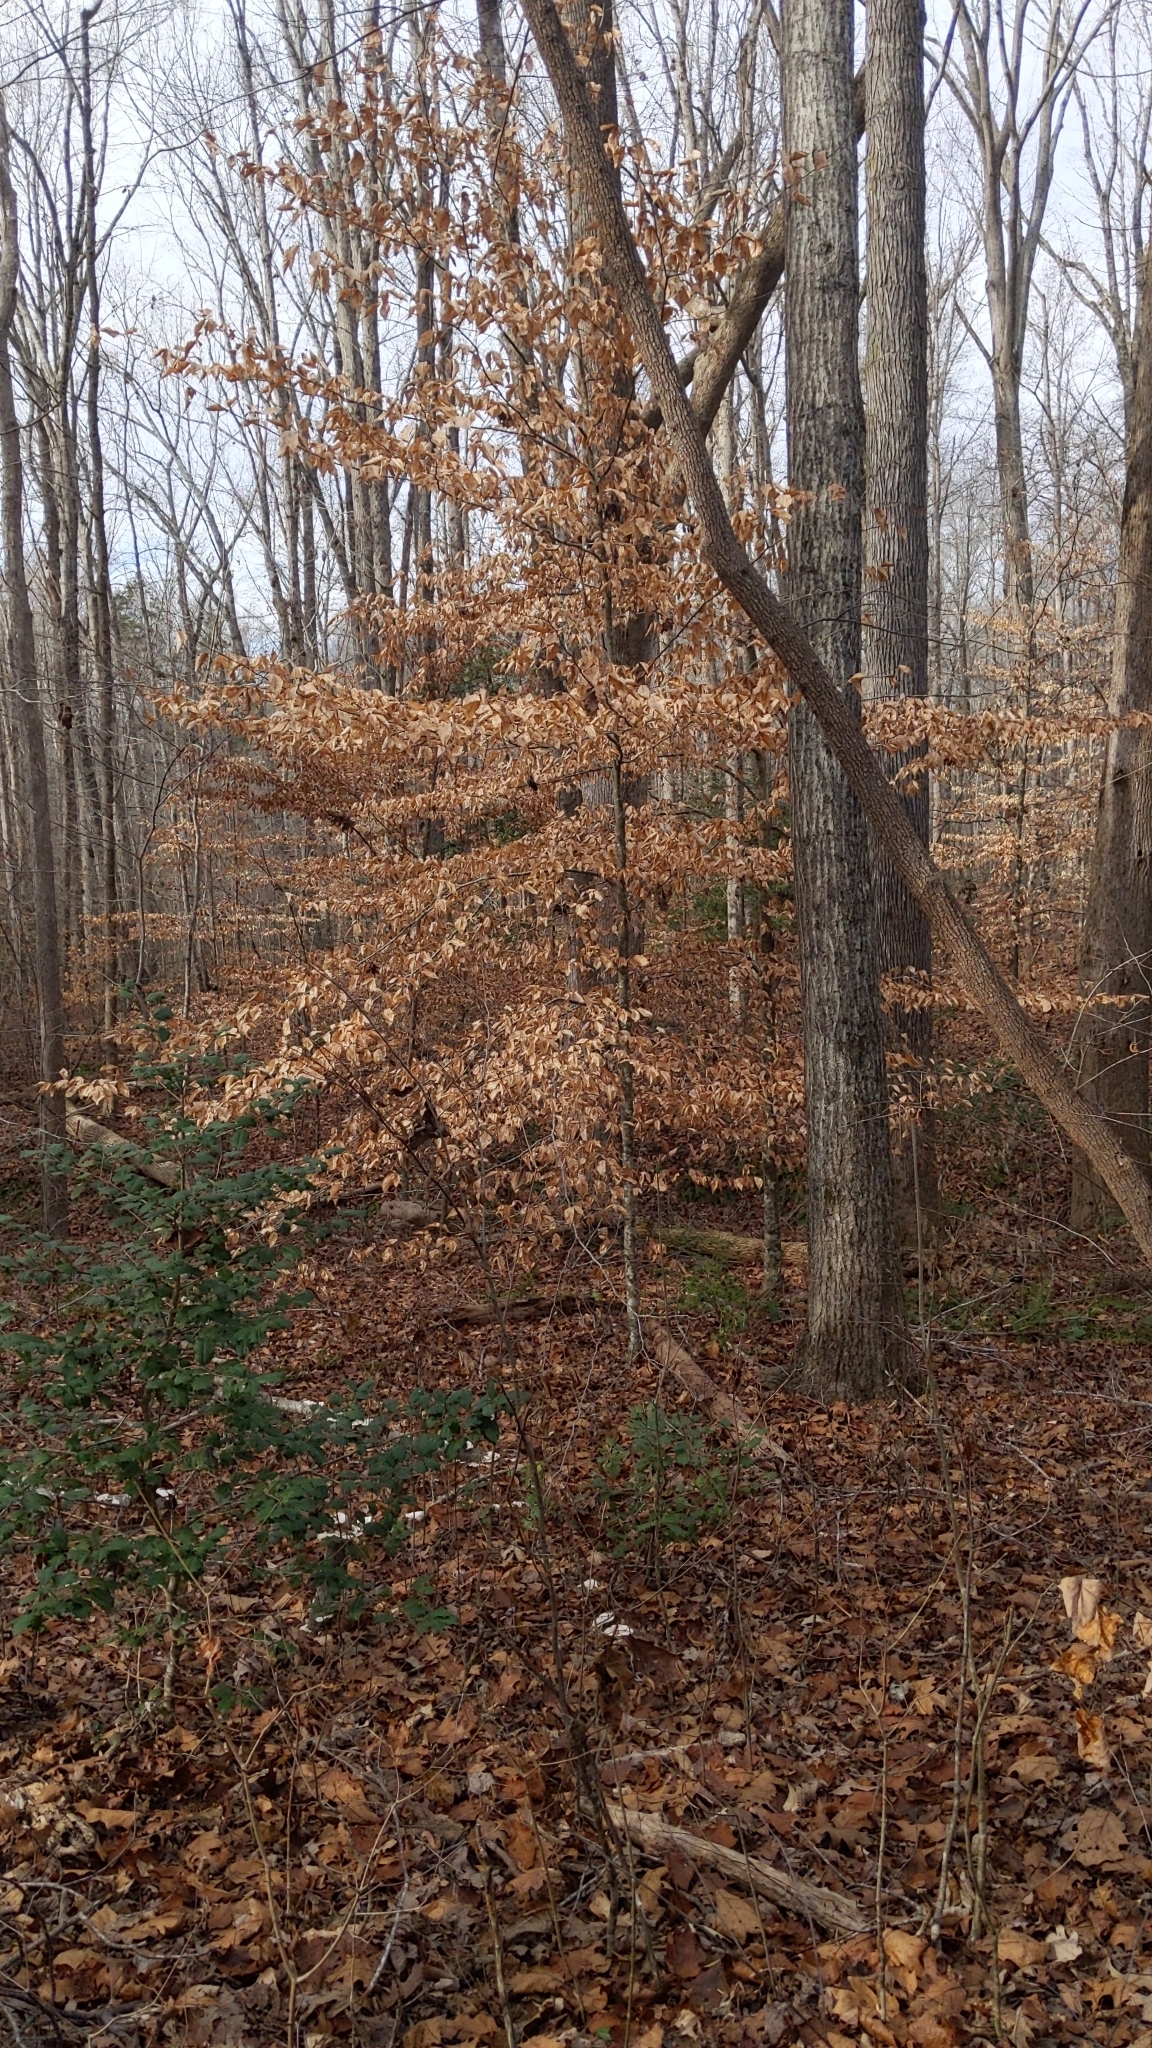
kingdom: Plantae
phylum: Tracheophyta
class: Magnoliopsida
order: Fagales
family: Fagaceae
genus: Fagus
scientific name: Fagus grandifolia
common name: American beech
